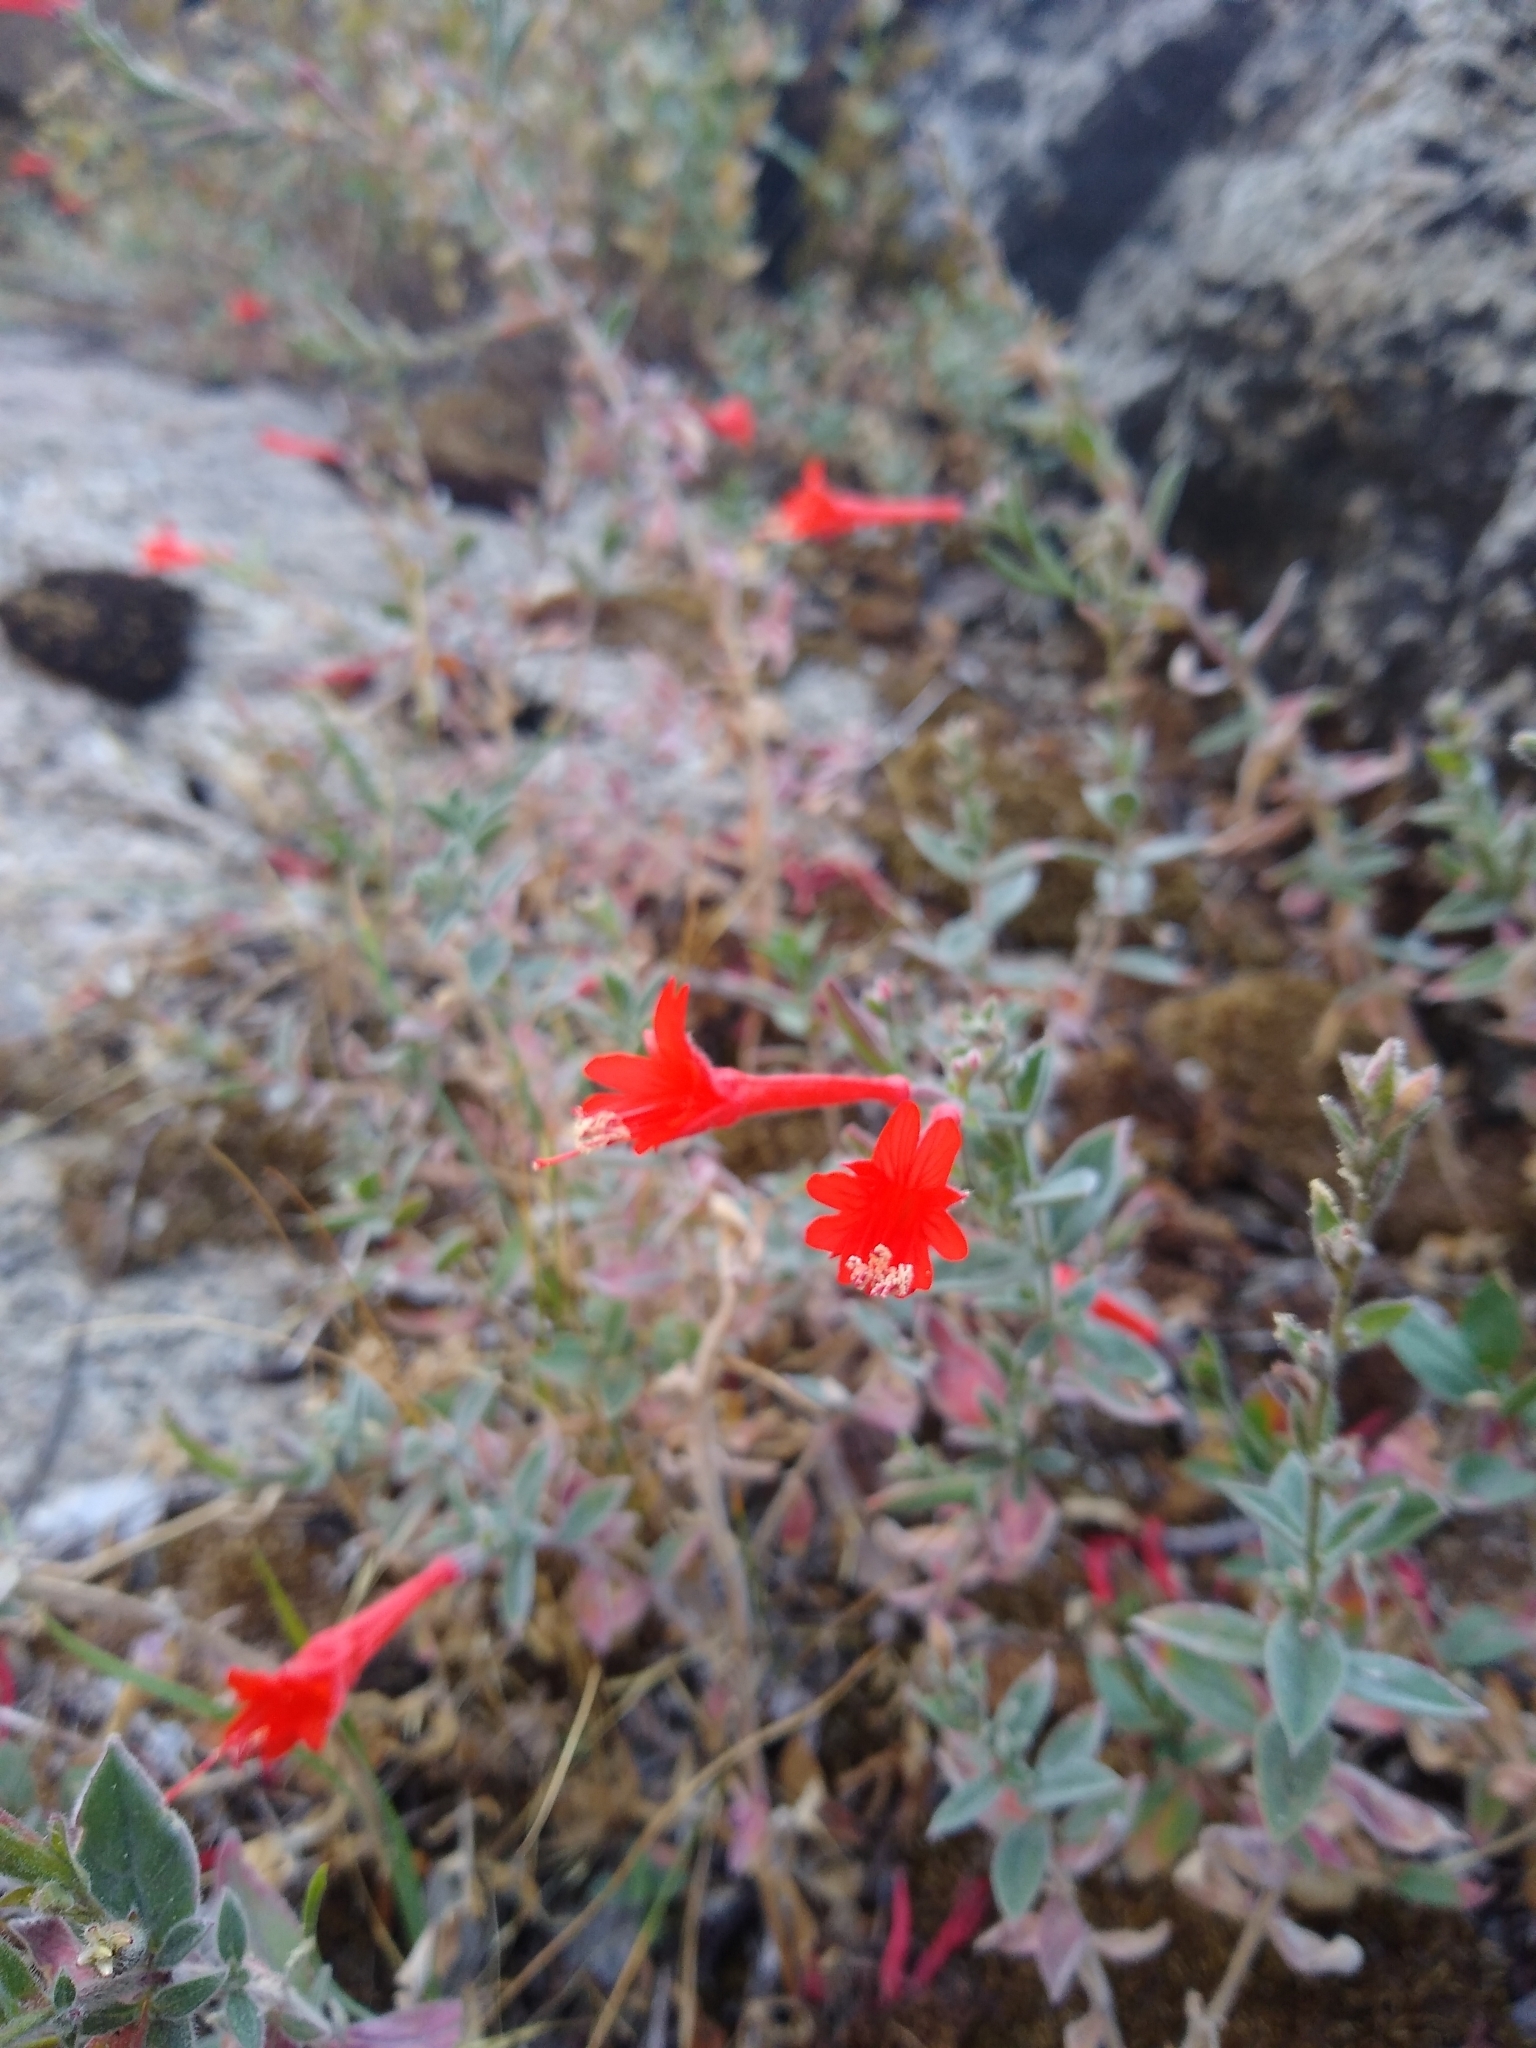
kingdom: Plantae
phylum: Tracheophyta
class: Magnoliopsida
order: Myrtales
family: Onagraceae
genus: Epilobium
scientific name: Epilobium canum
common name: California-fuchsia
